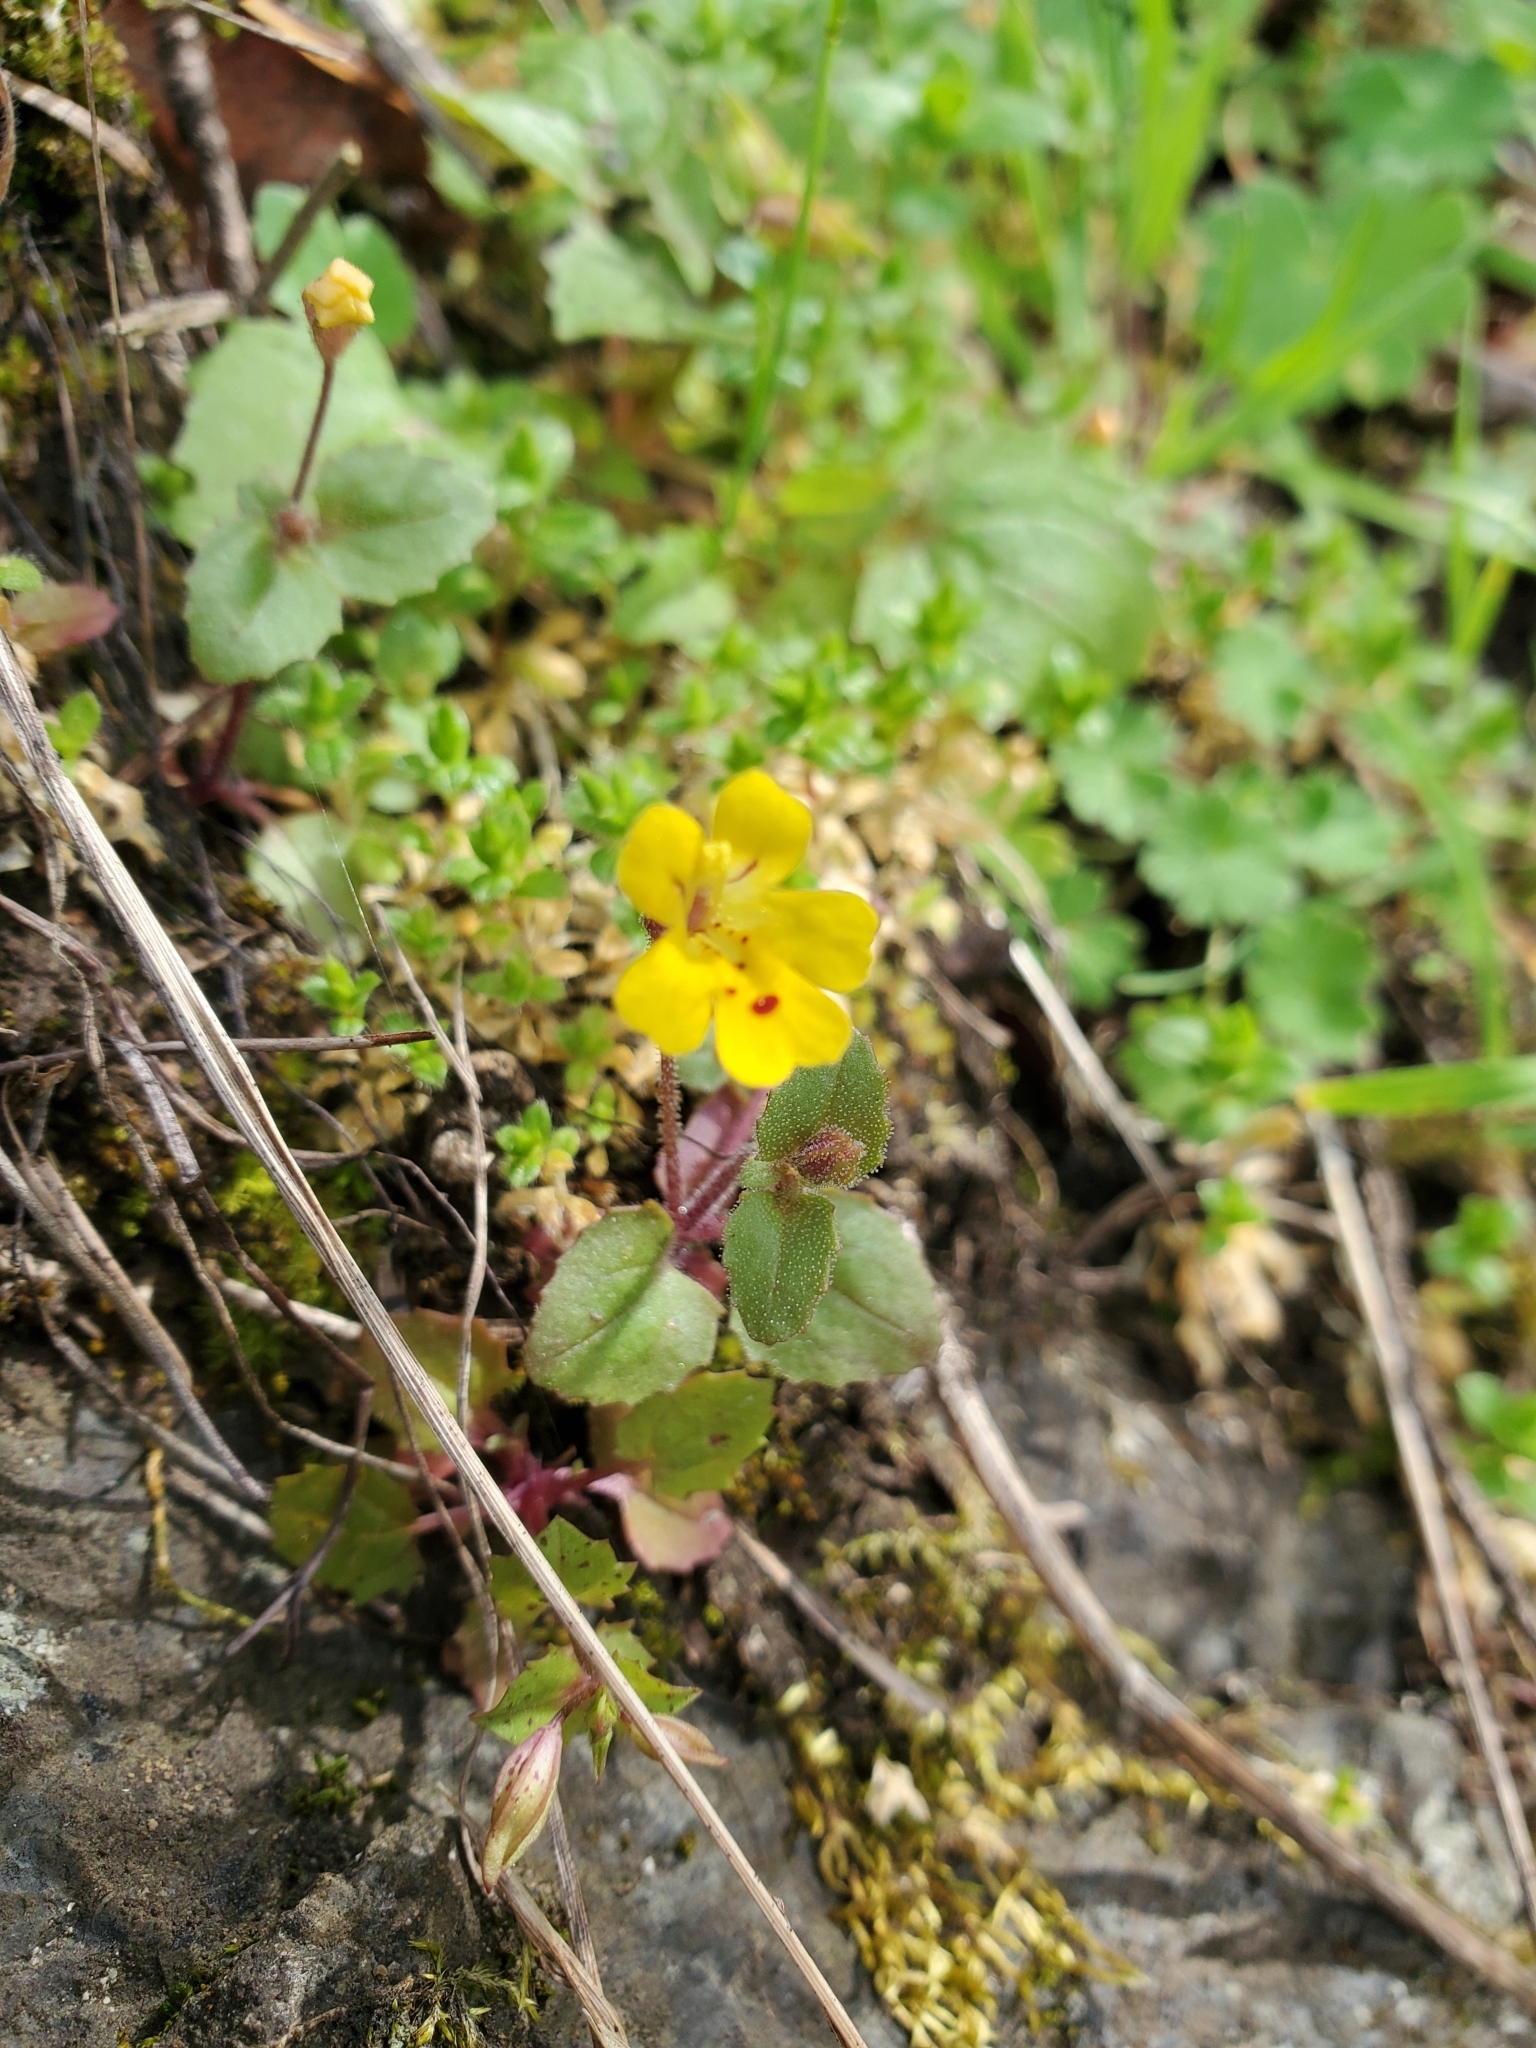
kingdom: Plantae
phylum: Tracheophyta
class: Magnoliopsida
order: Lamiales
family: Phrymaceae
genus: Erythranthe
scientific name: Erythranthe alsinoides
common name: Chickweed monkeyflower
